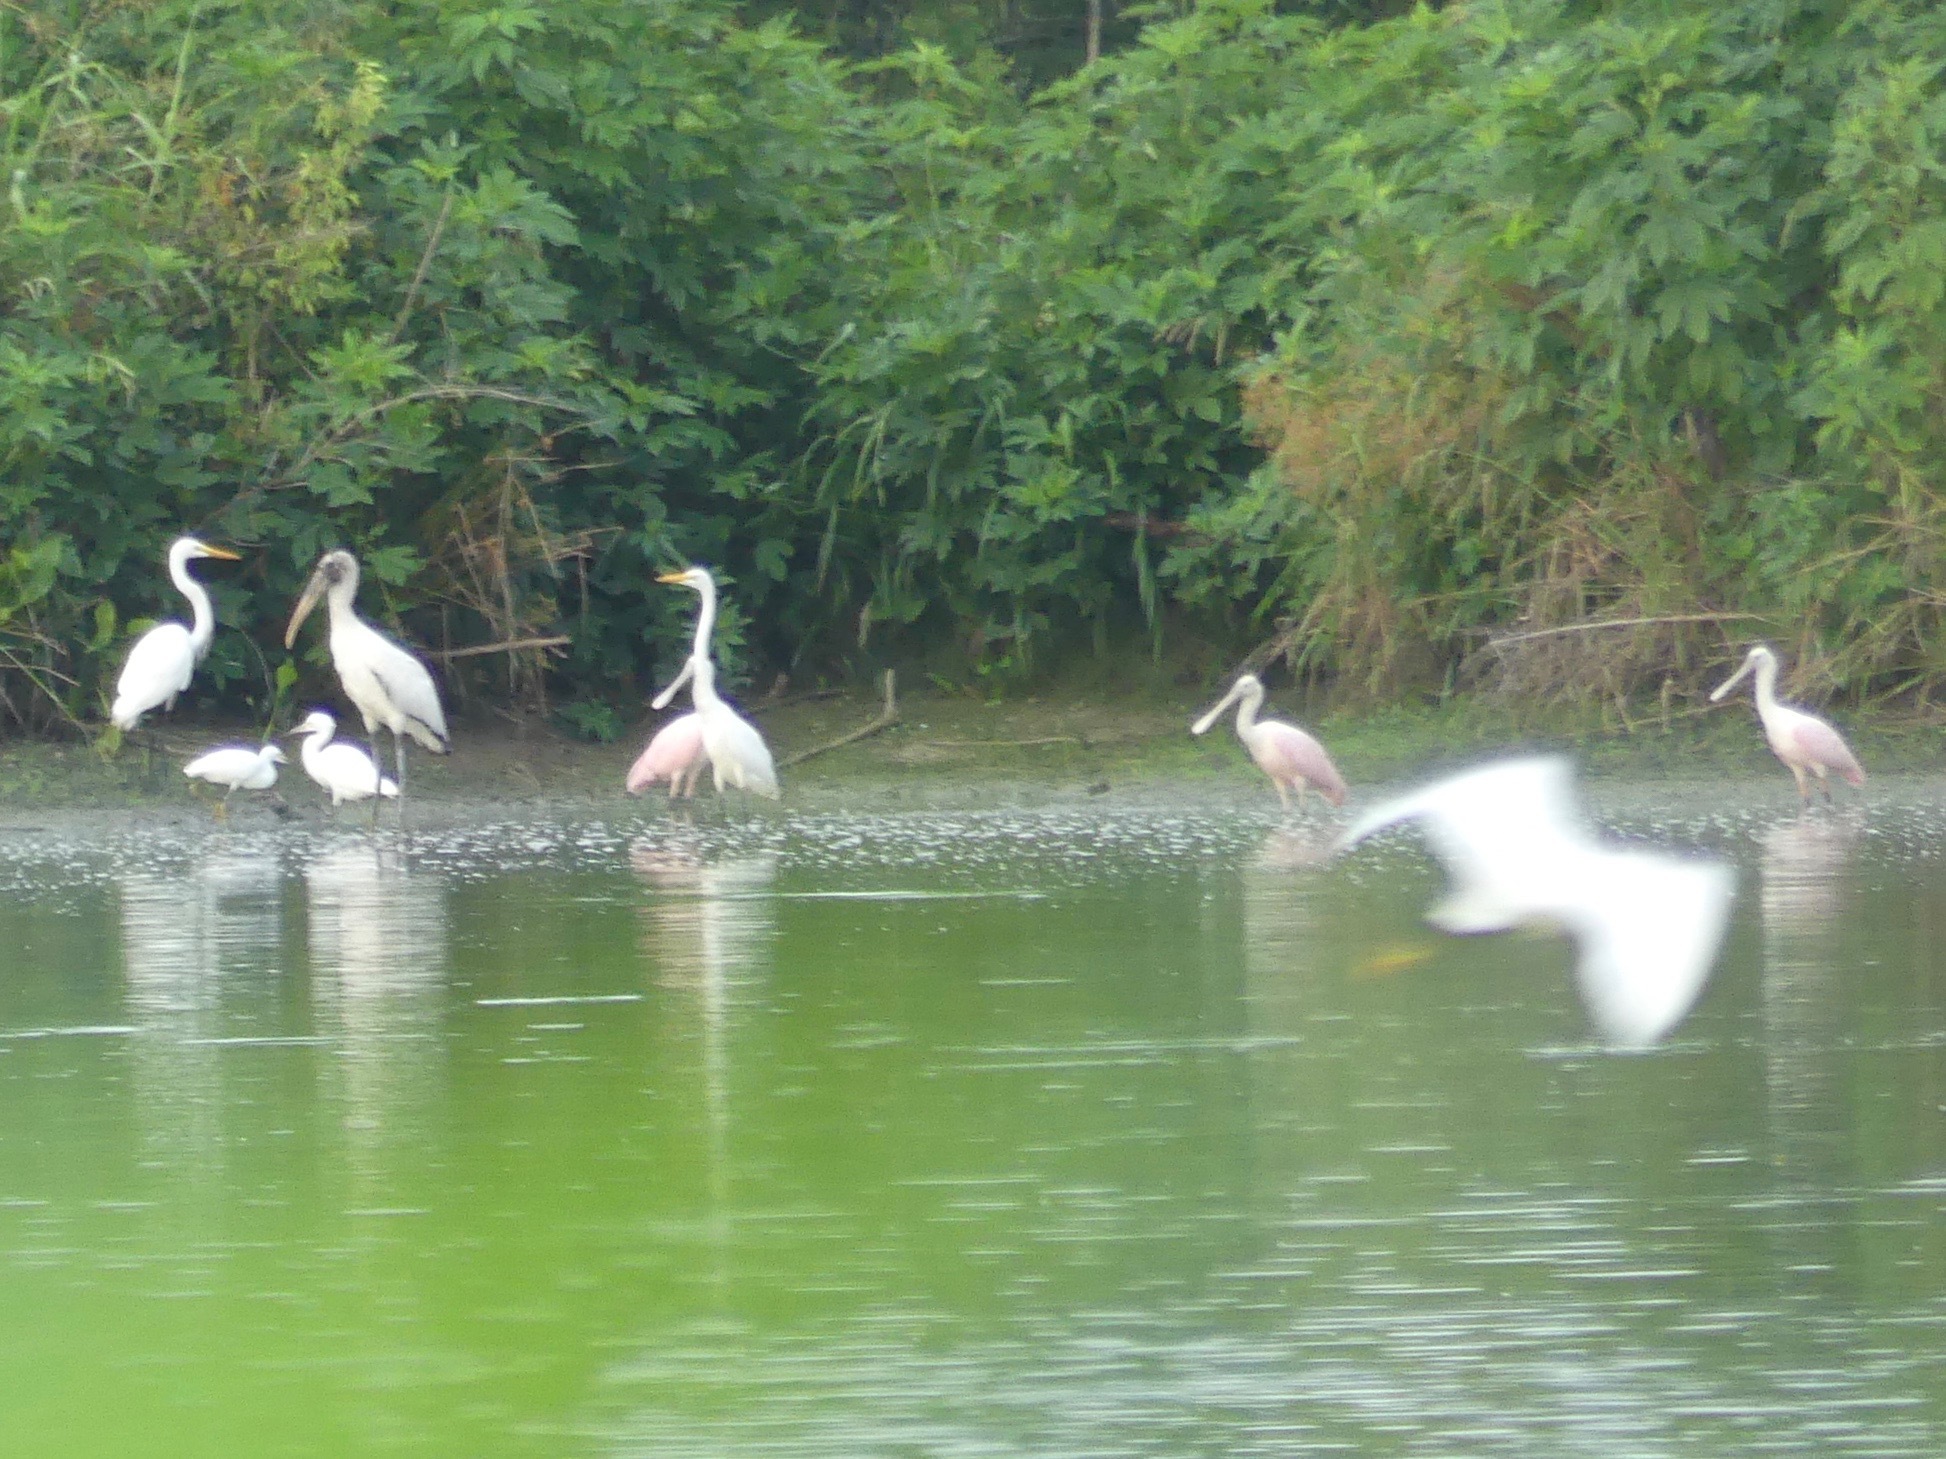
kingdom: Animalia
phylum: Chordata
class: Aves
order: Pelecaniformes
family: Ardeidae
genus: Egretta
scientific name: Egretta thula
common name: Snowy egret
